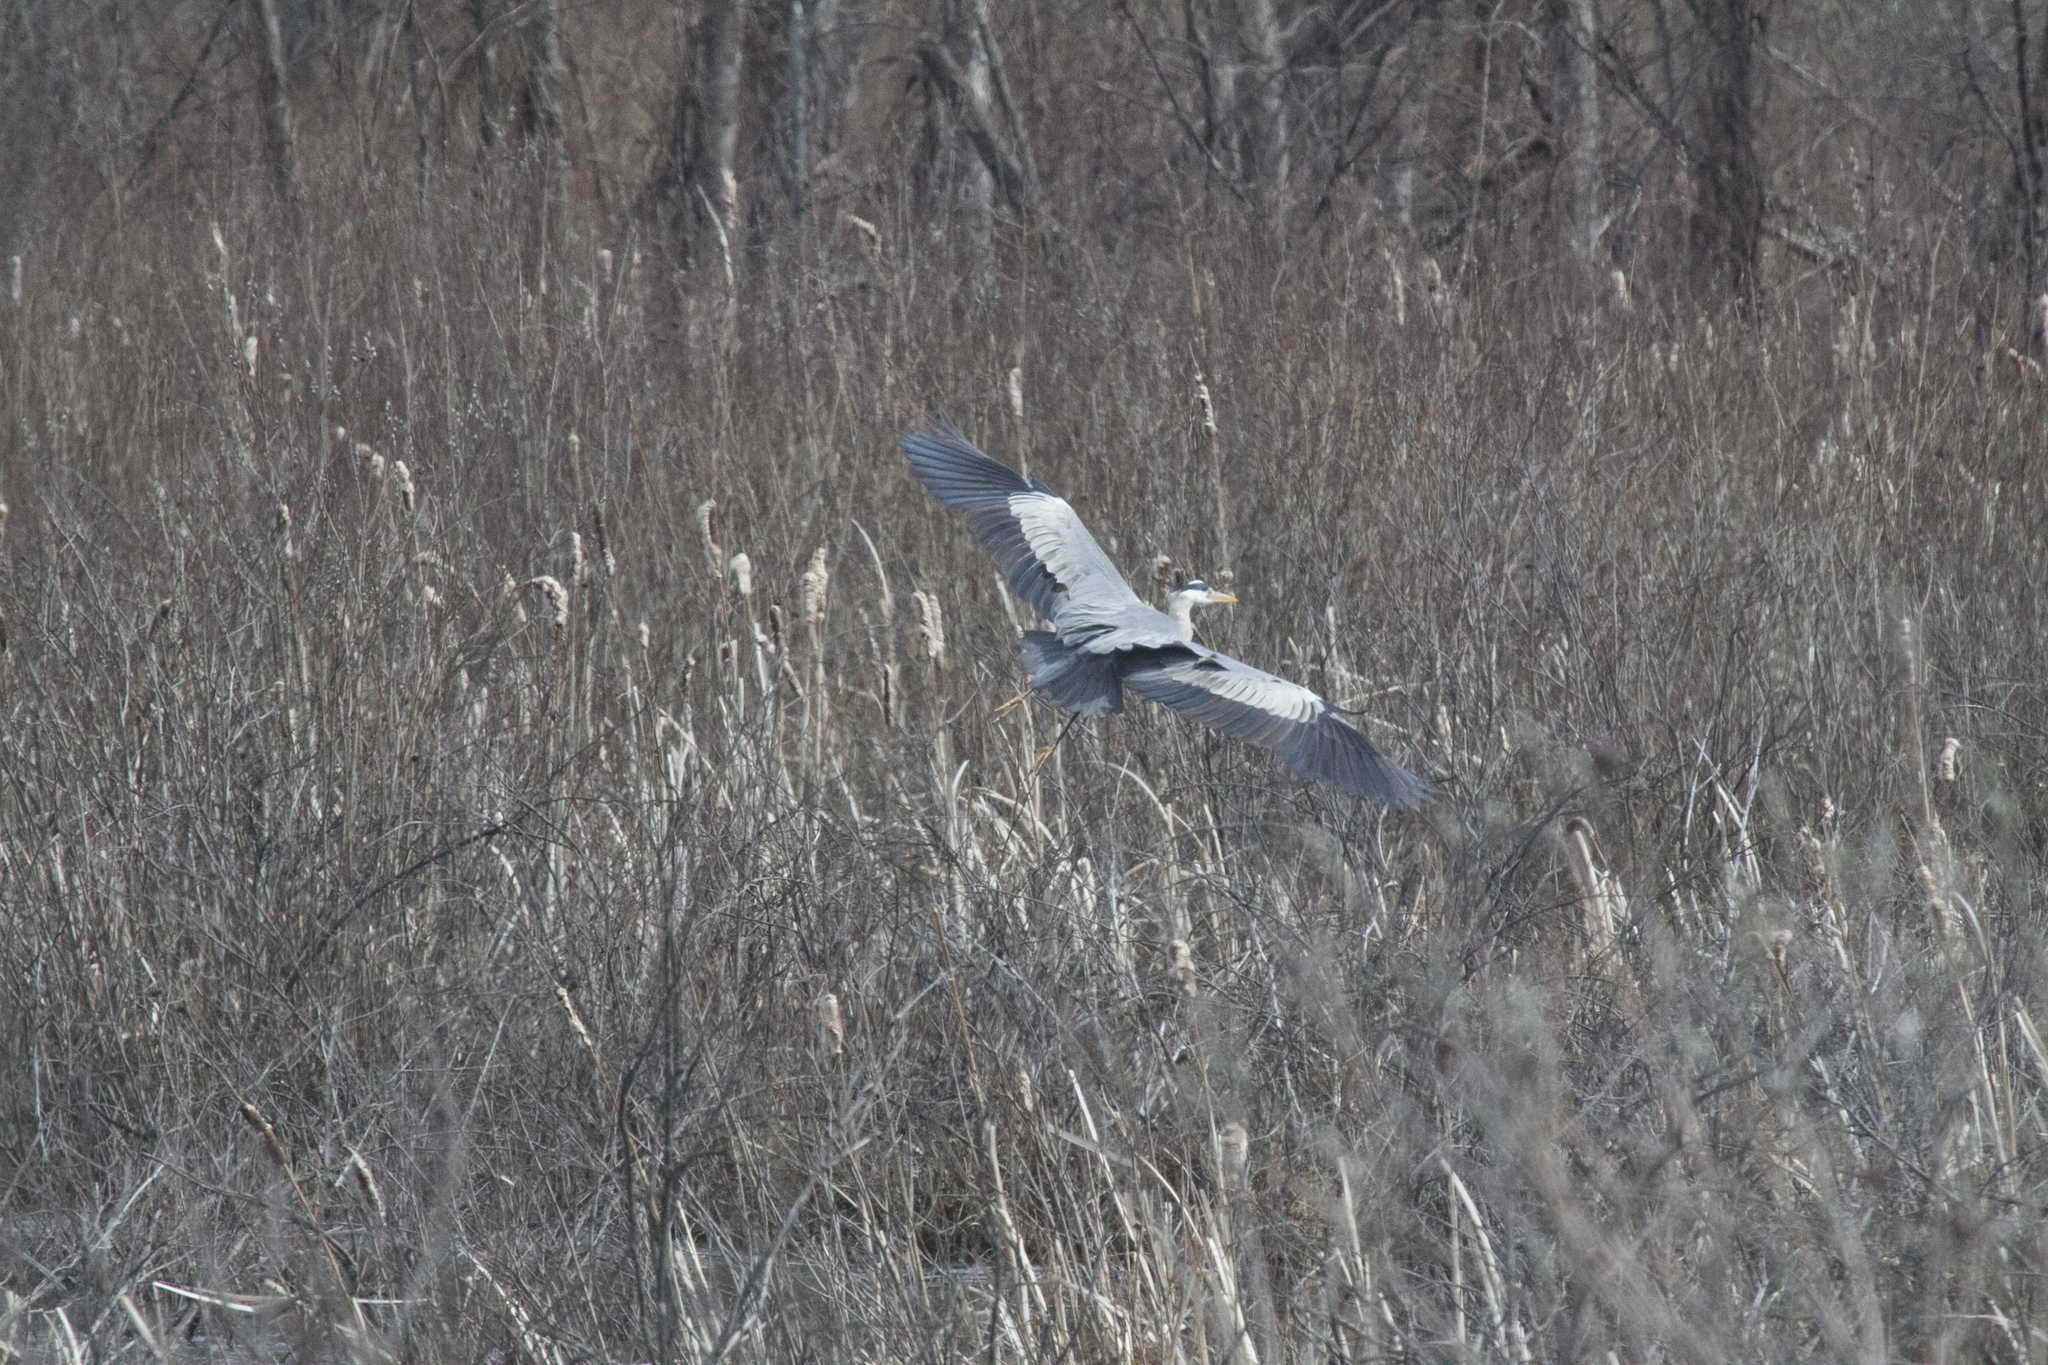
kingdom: Animalia
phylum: Chordata
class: Aves
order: Pelecaniformes
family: Ardeidae
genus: Ardea
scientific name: Ardea cinerea
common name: Grey heron
